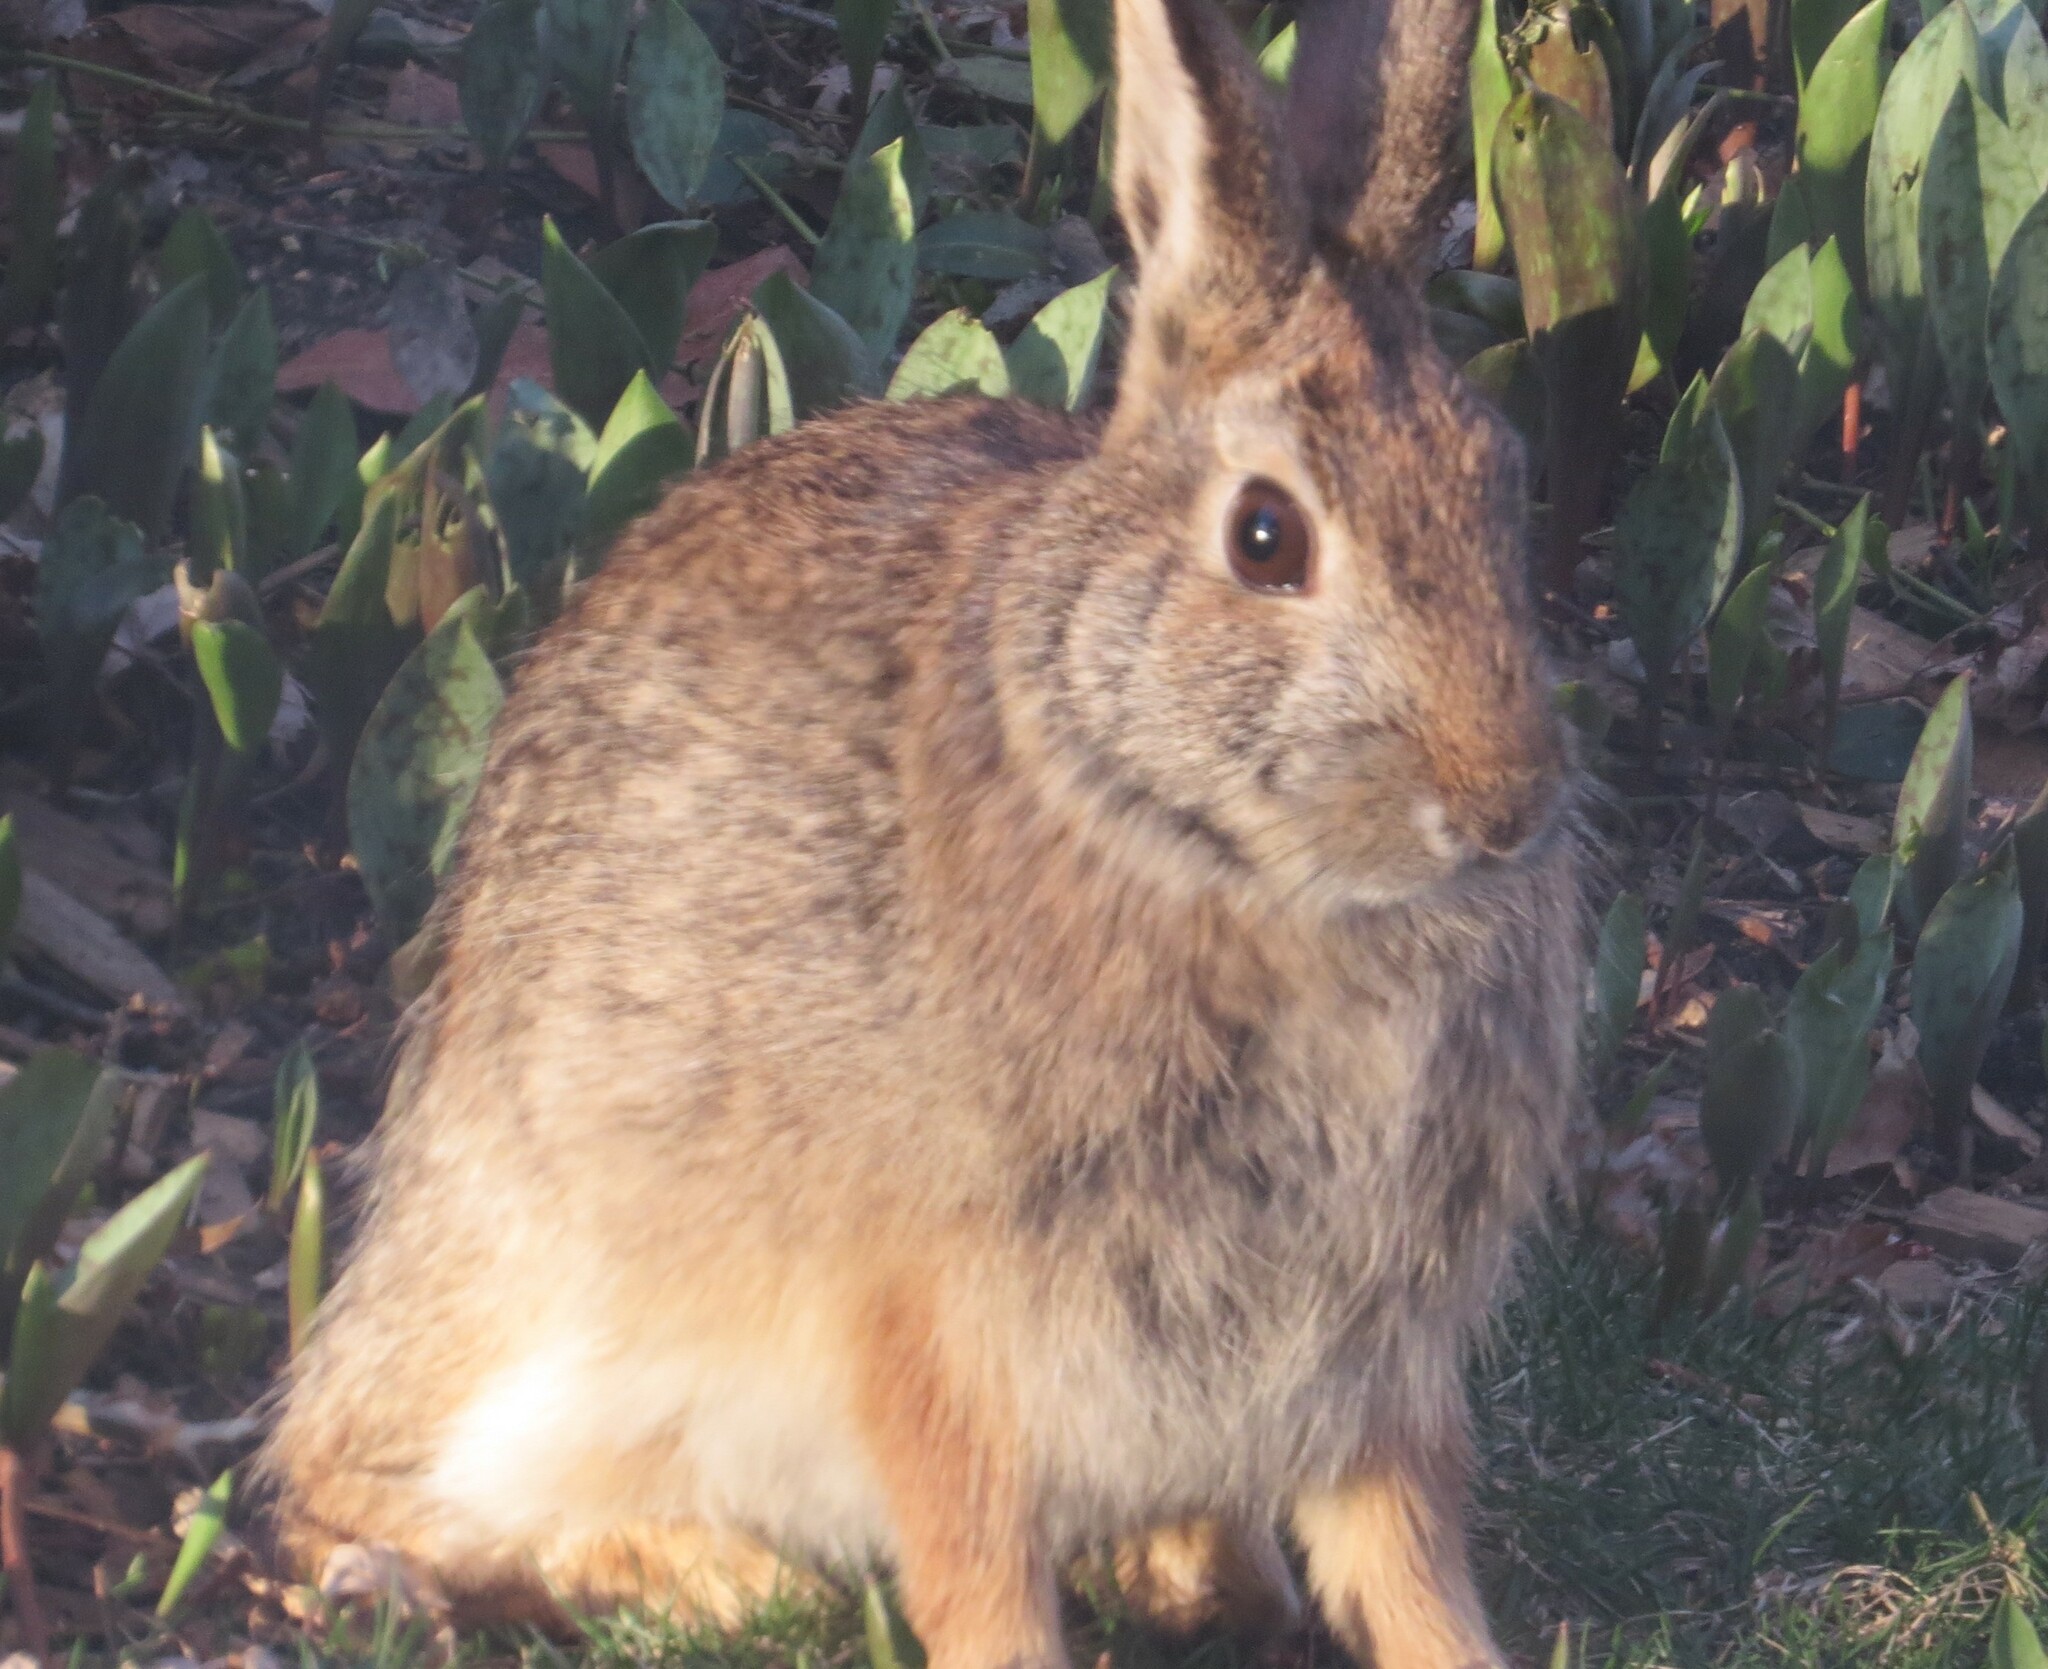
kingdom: Animalia
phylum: Chordata
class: Mammalia
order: Lagomorpha
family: Leporidae
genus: Sylvilagus
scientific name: Sylvilagus floridanus
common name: Eastern cottontail
